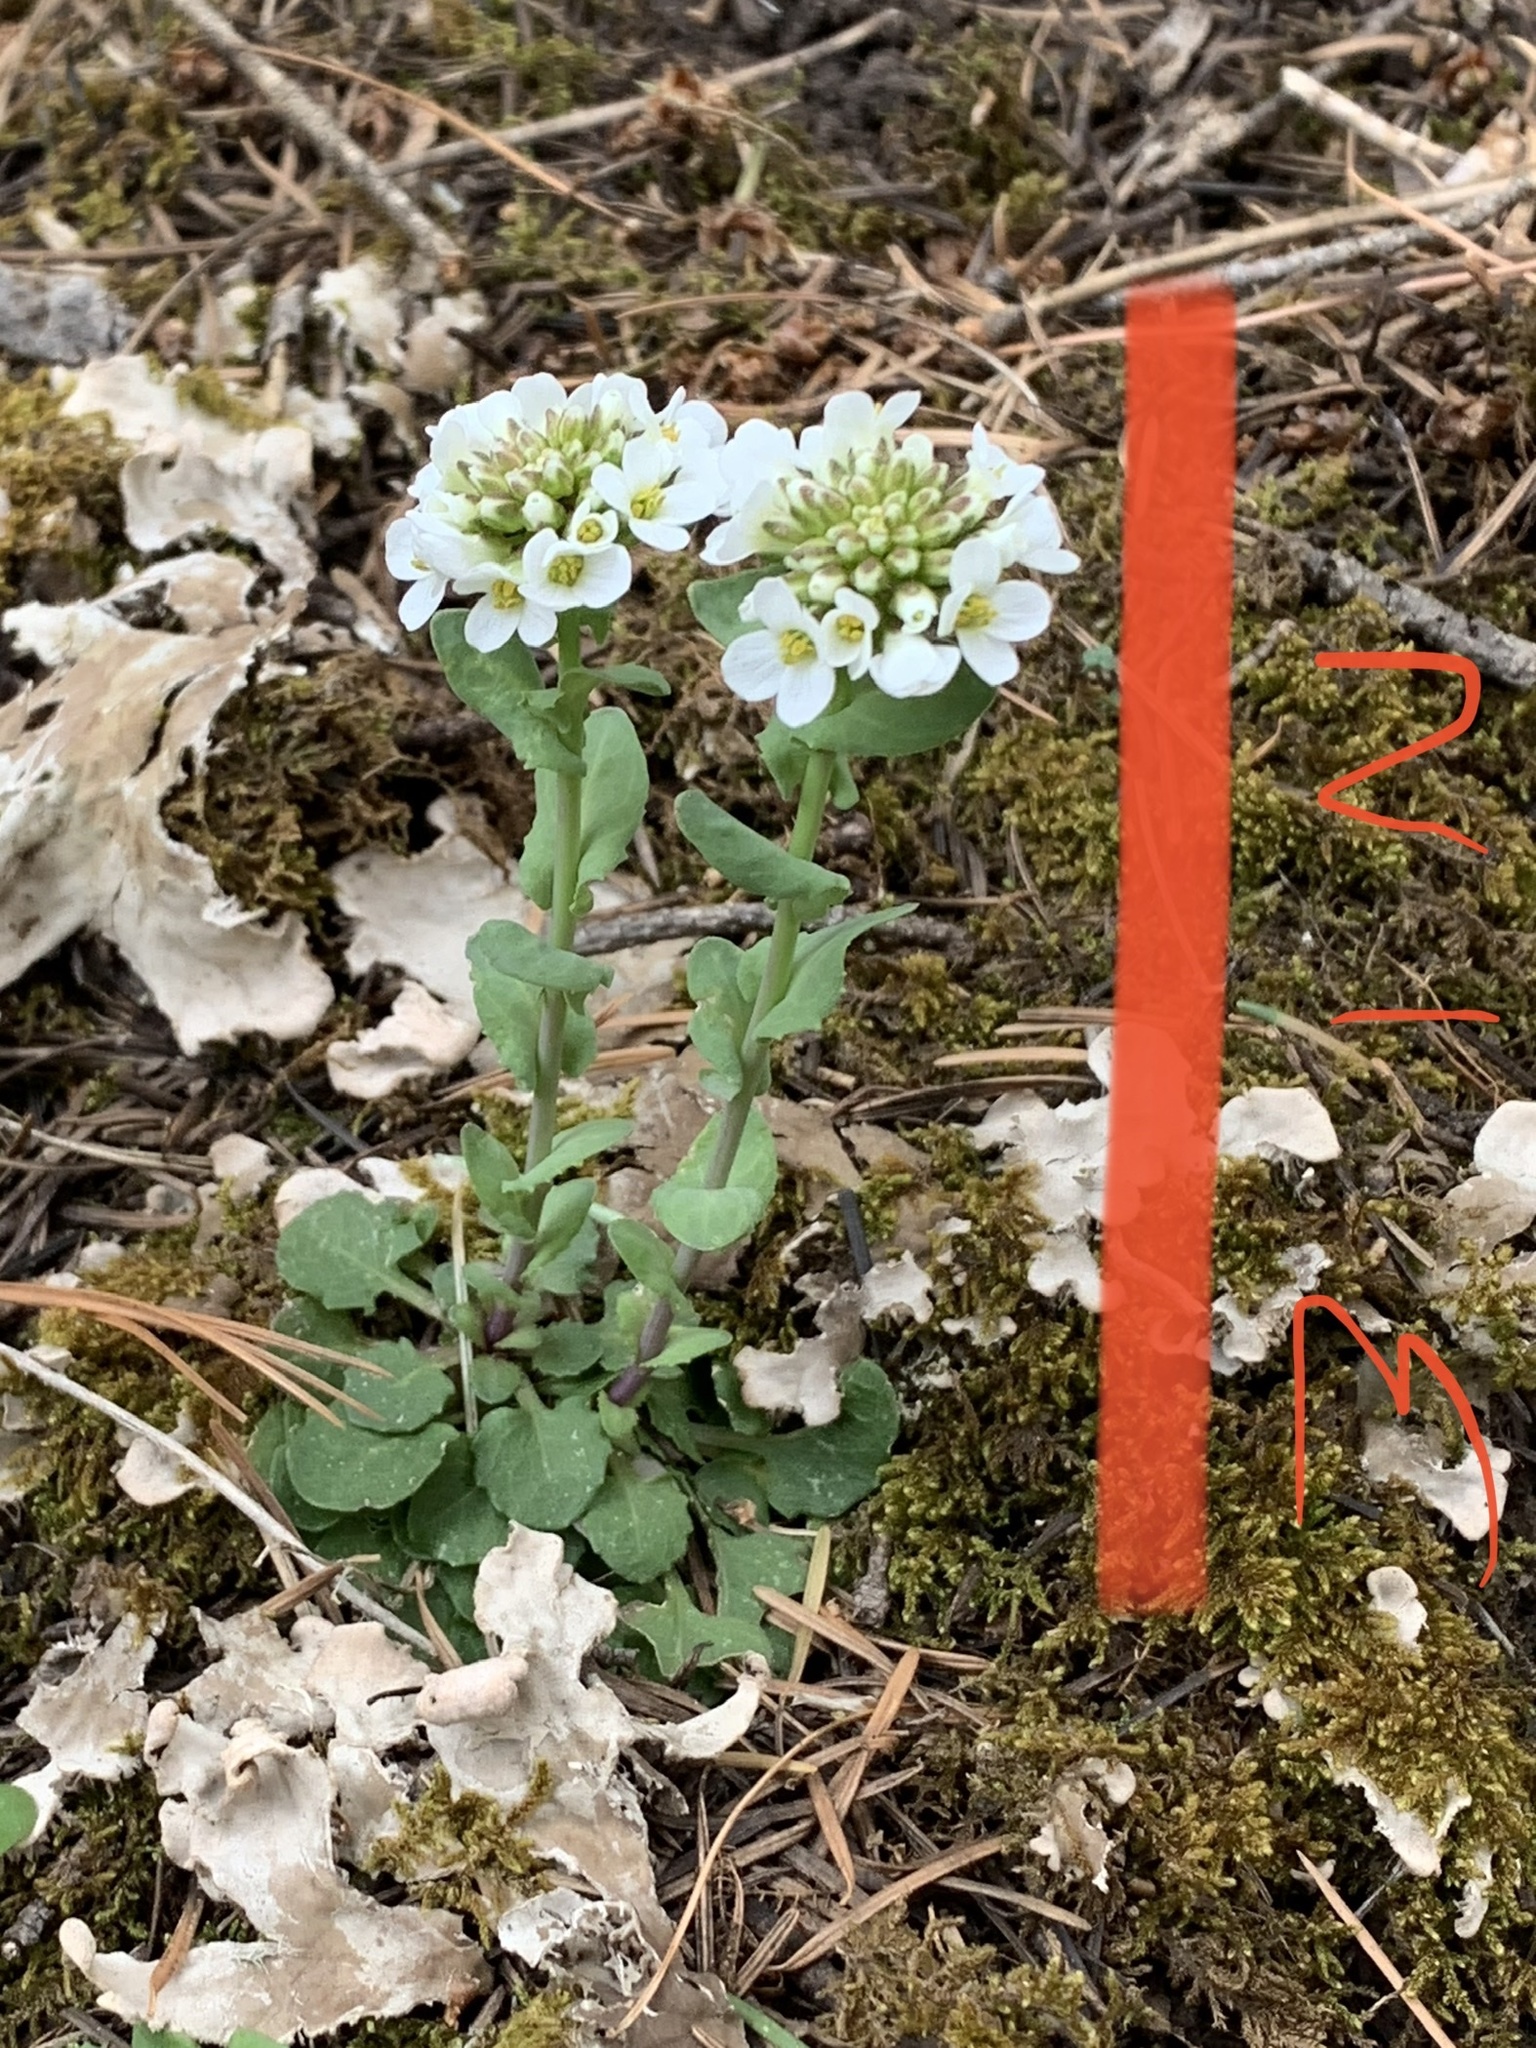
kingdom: Plantae
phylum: Tracheophyta
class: Magnoliopsida
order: Brassicales
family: Brassicaceae
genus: Noccaea
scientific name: Noccaea fendleri
